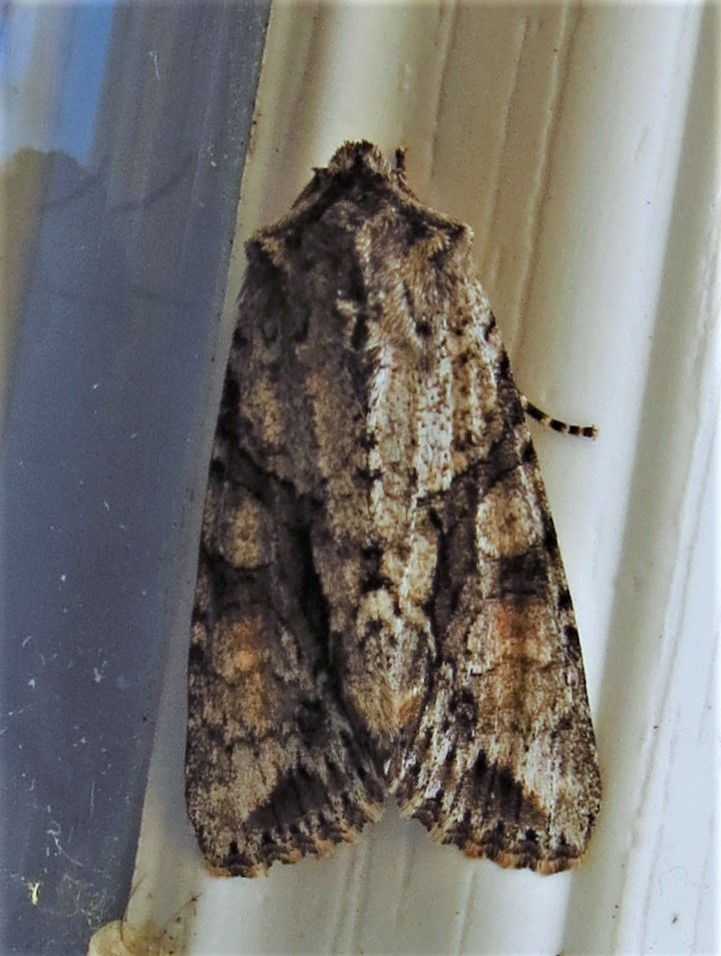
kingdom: Animalia
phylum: Arthropoda
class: Insecta
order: Lepidoptera
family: Noctuidae
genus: Achatia
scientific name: Achatia distincta
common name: Distinct quaker
